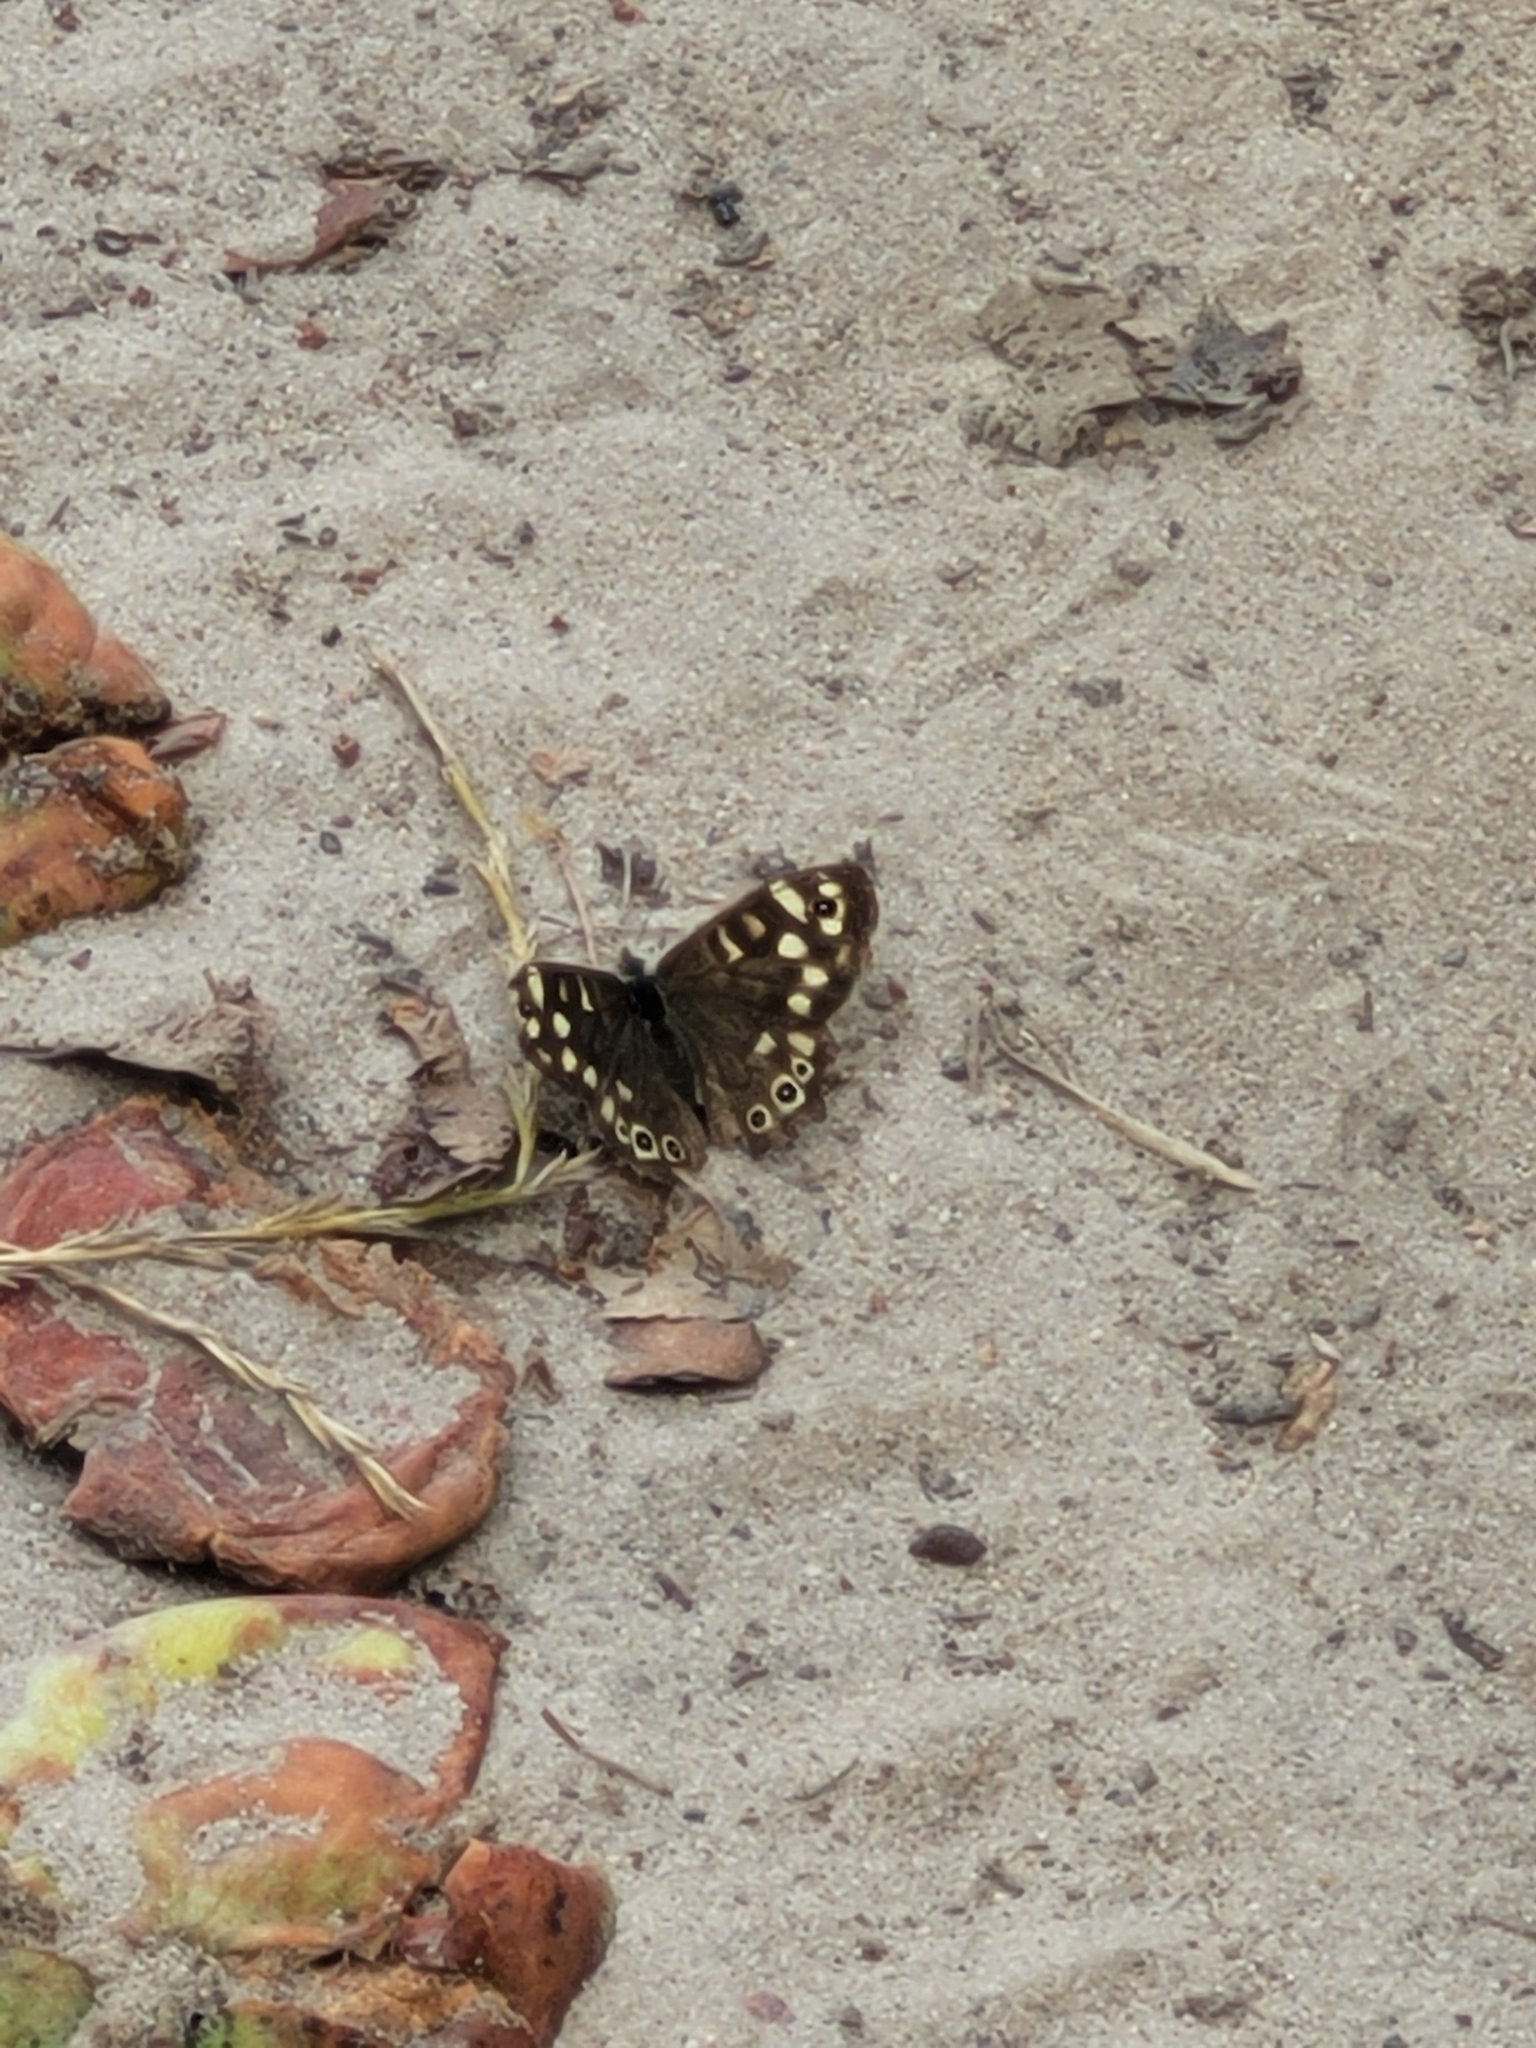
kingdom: Animalia
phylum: Arthropoda
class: Insecta
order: Lepidoptera
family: Nymphalidae
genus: Pararge
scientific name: Pararge aegeria
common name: Speckled wood
